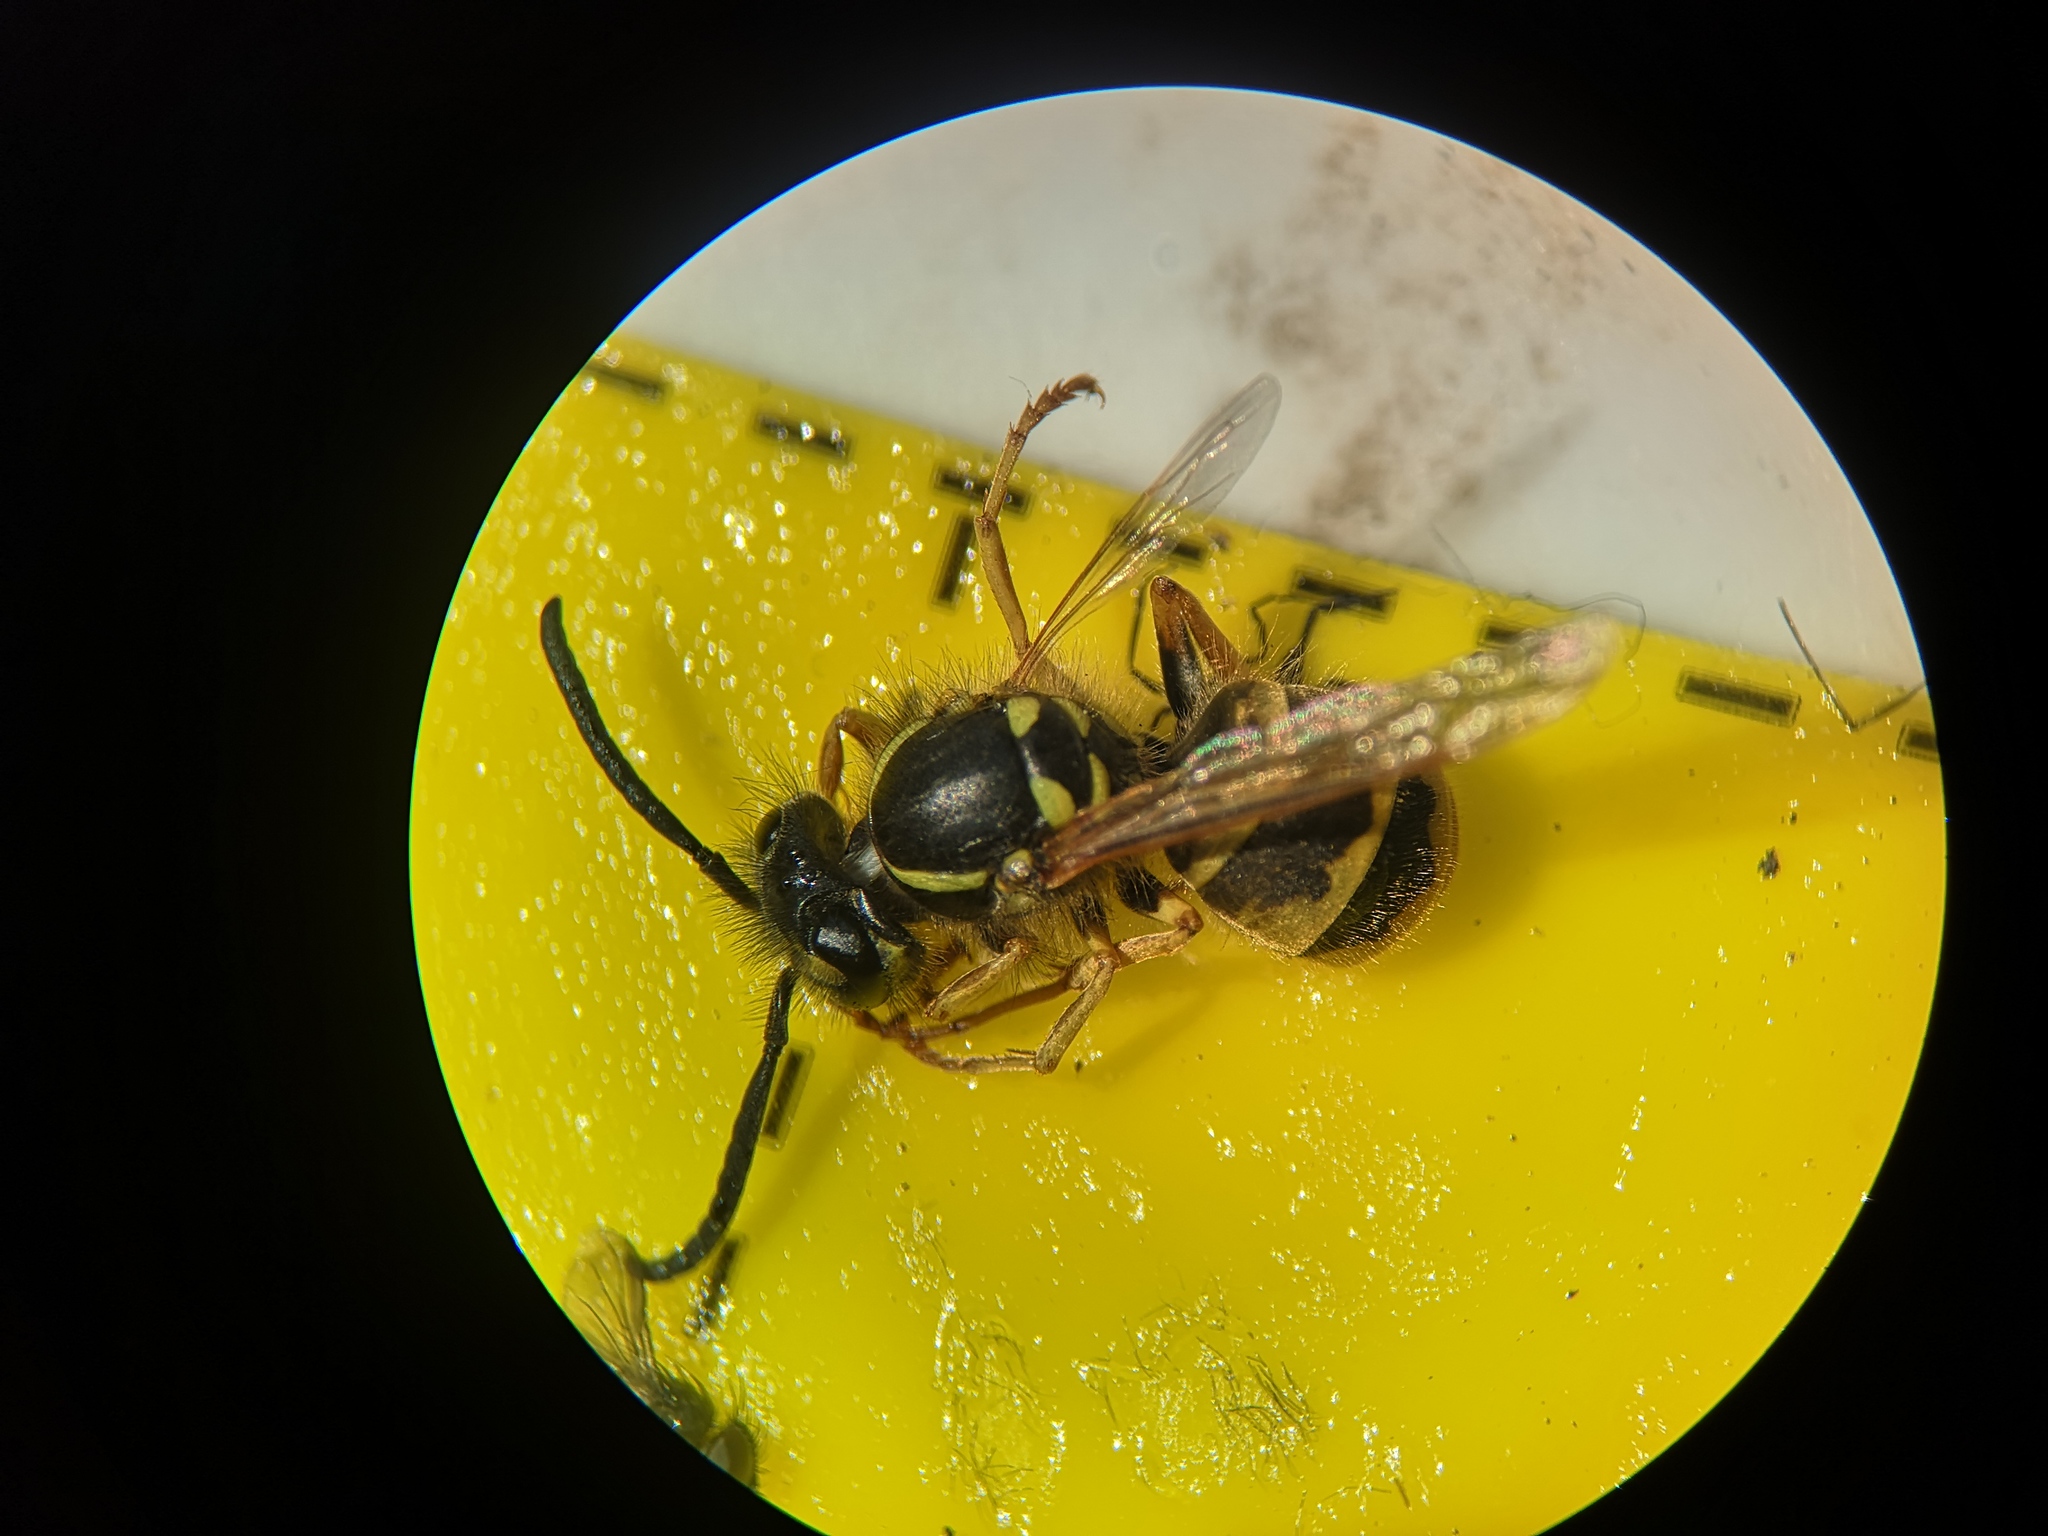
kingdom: Animalia
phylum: Arthropoda
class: Insecta
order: Hymenoptera
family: Vespidae
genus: Vespula
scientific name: Vespula vulgaris
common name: Common wasp
